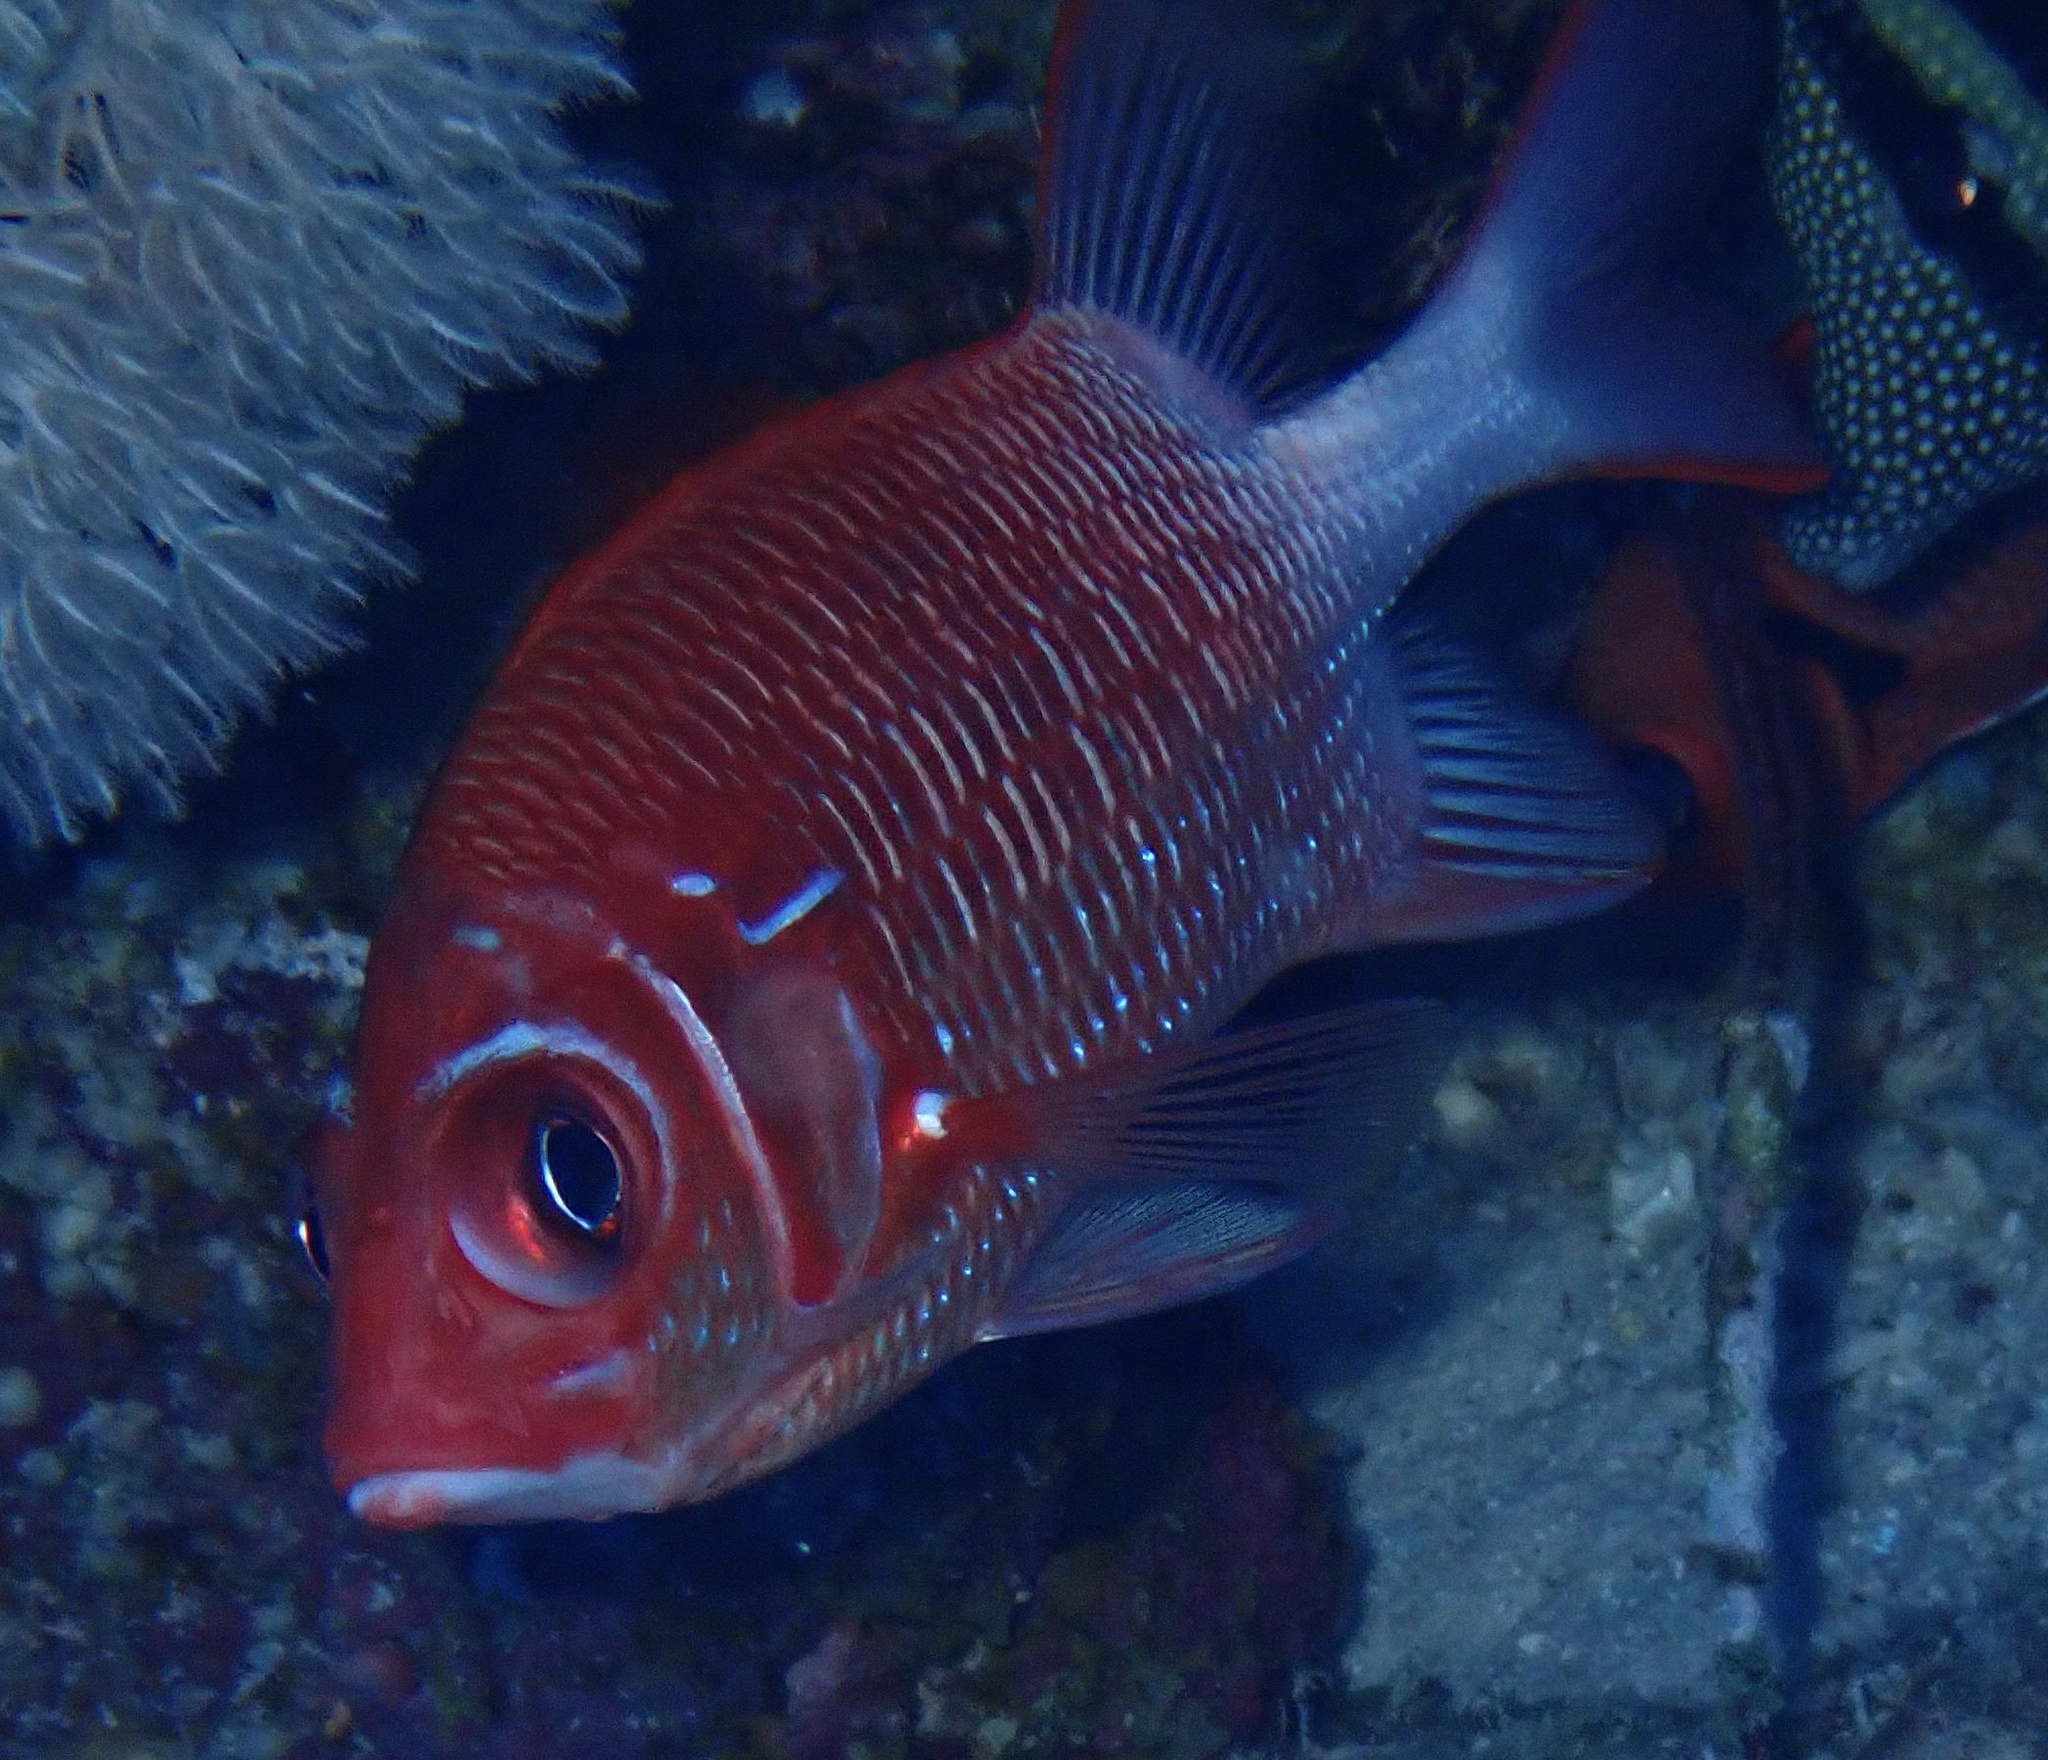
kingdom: Animalia
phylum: Chordata
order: Beryciformes
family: Holocentridae
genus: Sargocentron
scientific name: Sargocentron caudimaculatum
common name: Fanfin soldier
